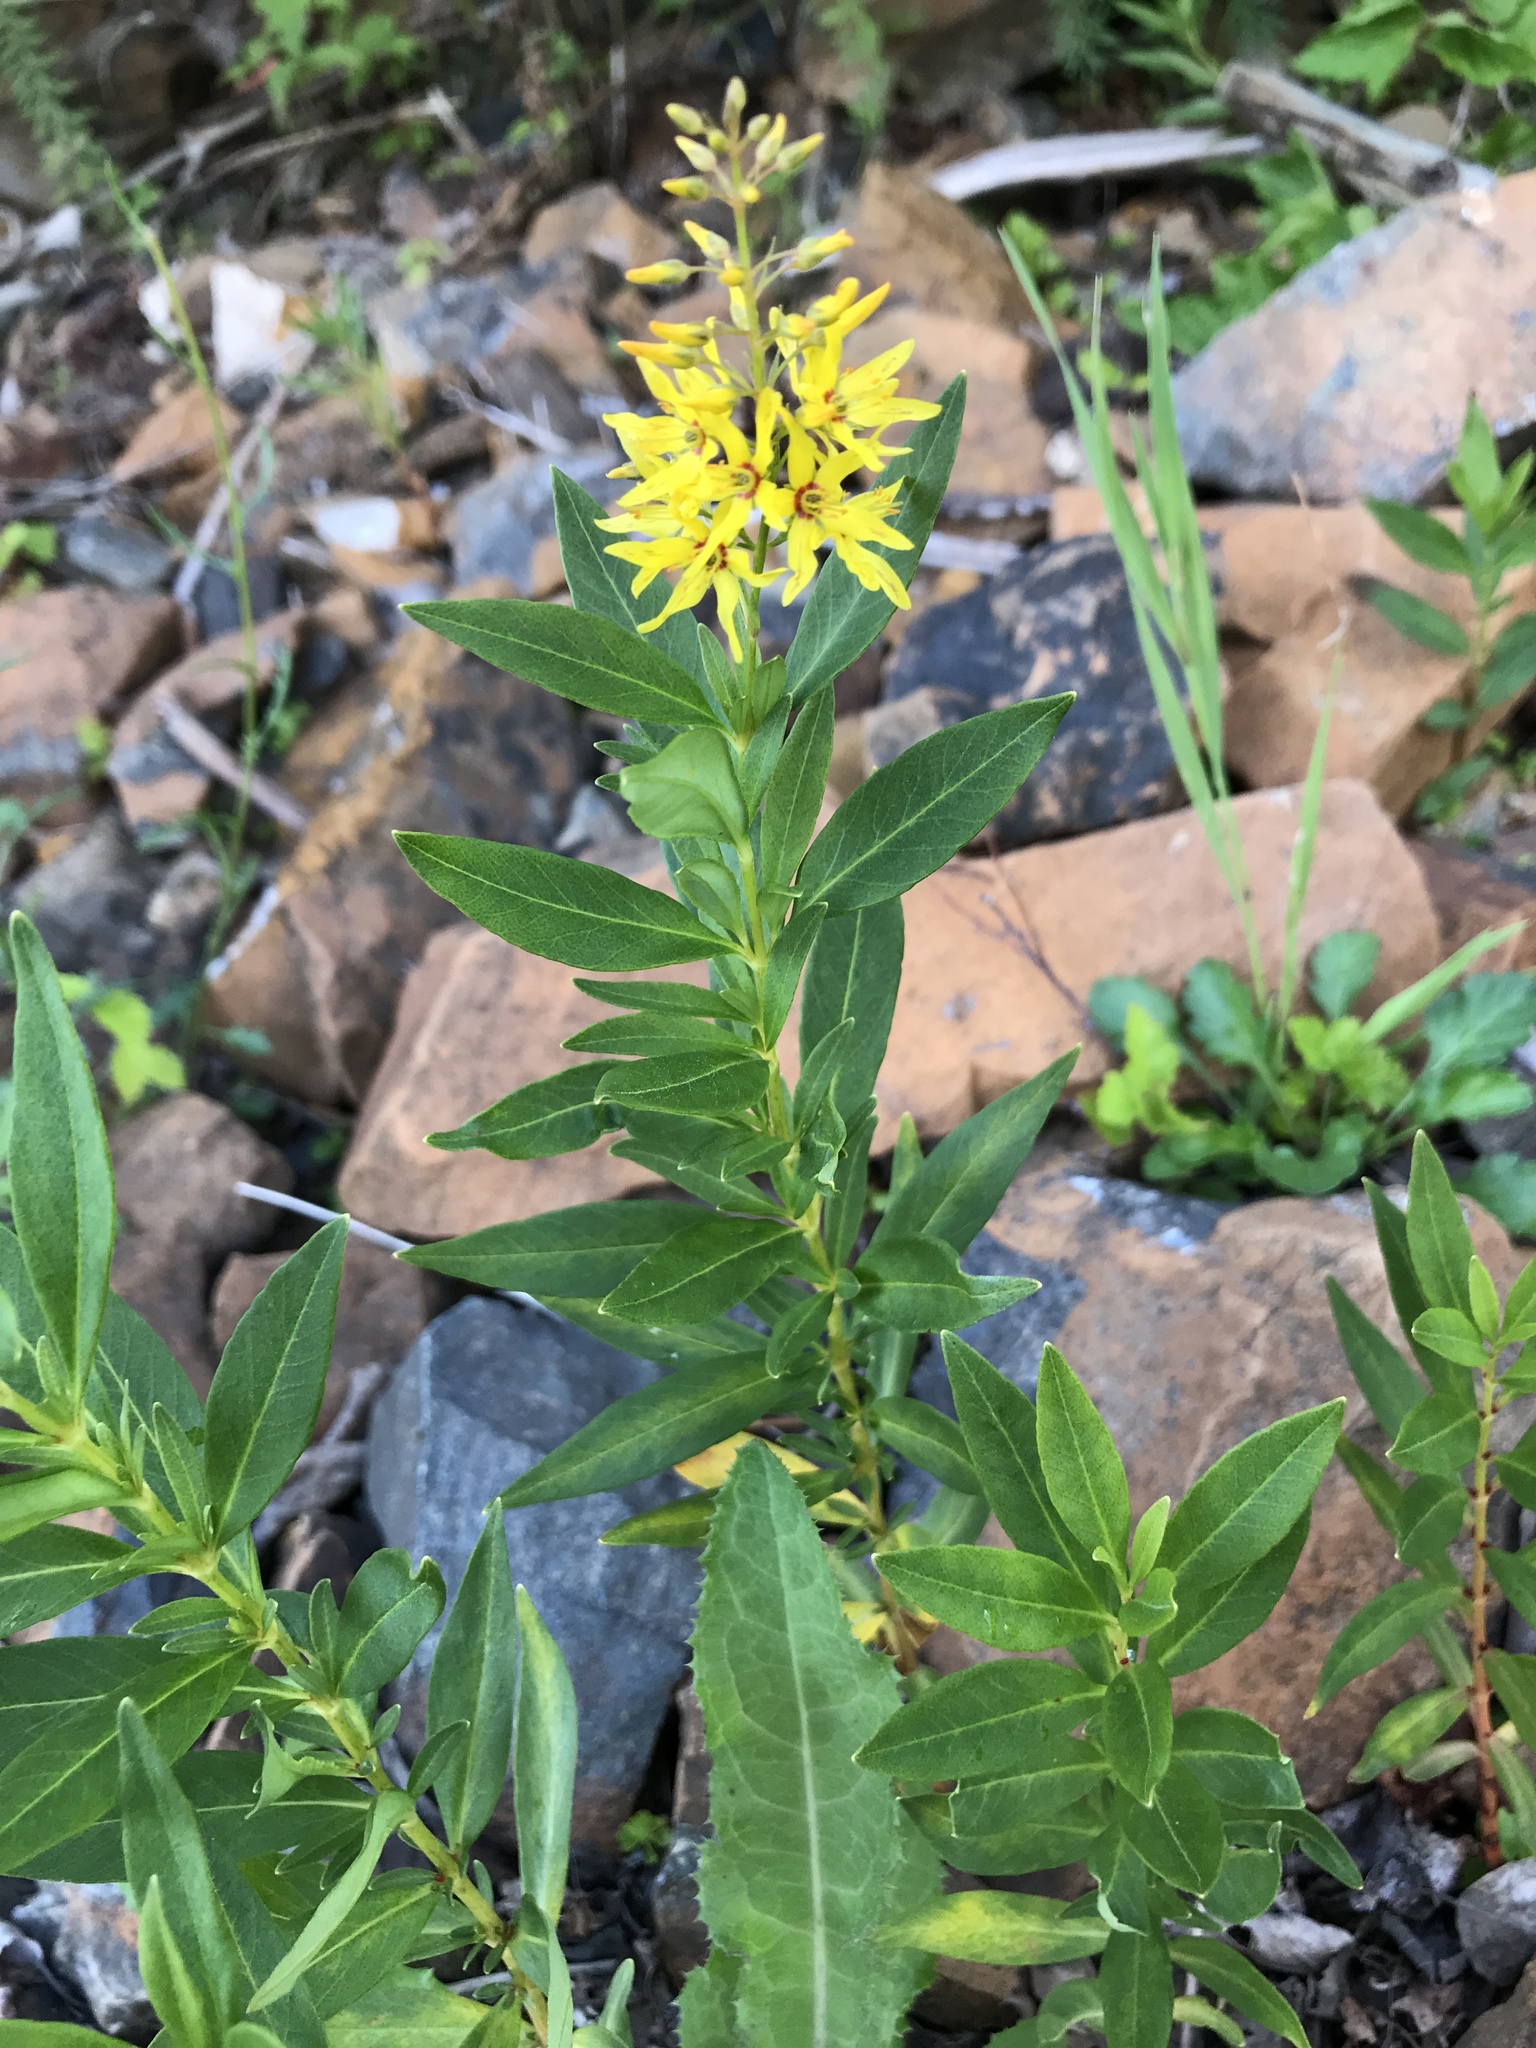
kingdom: Plantae
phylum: Tracheophyta
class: Magnoliopsida
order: Ericales
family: Primulaceae
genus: Lysimachia
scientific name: Lysimachia terrestris
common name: Lake loosestrife
